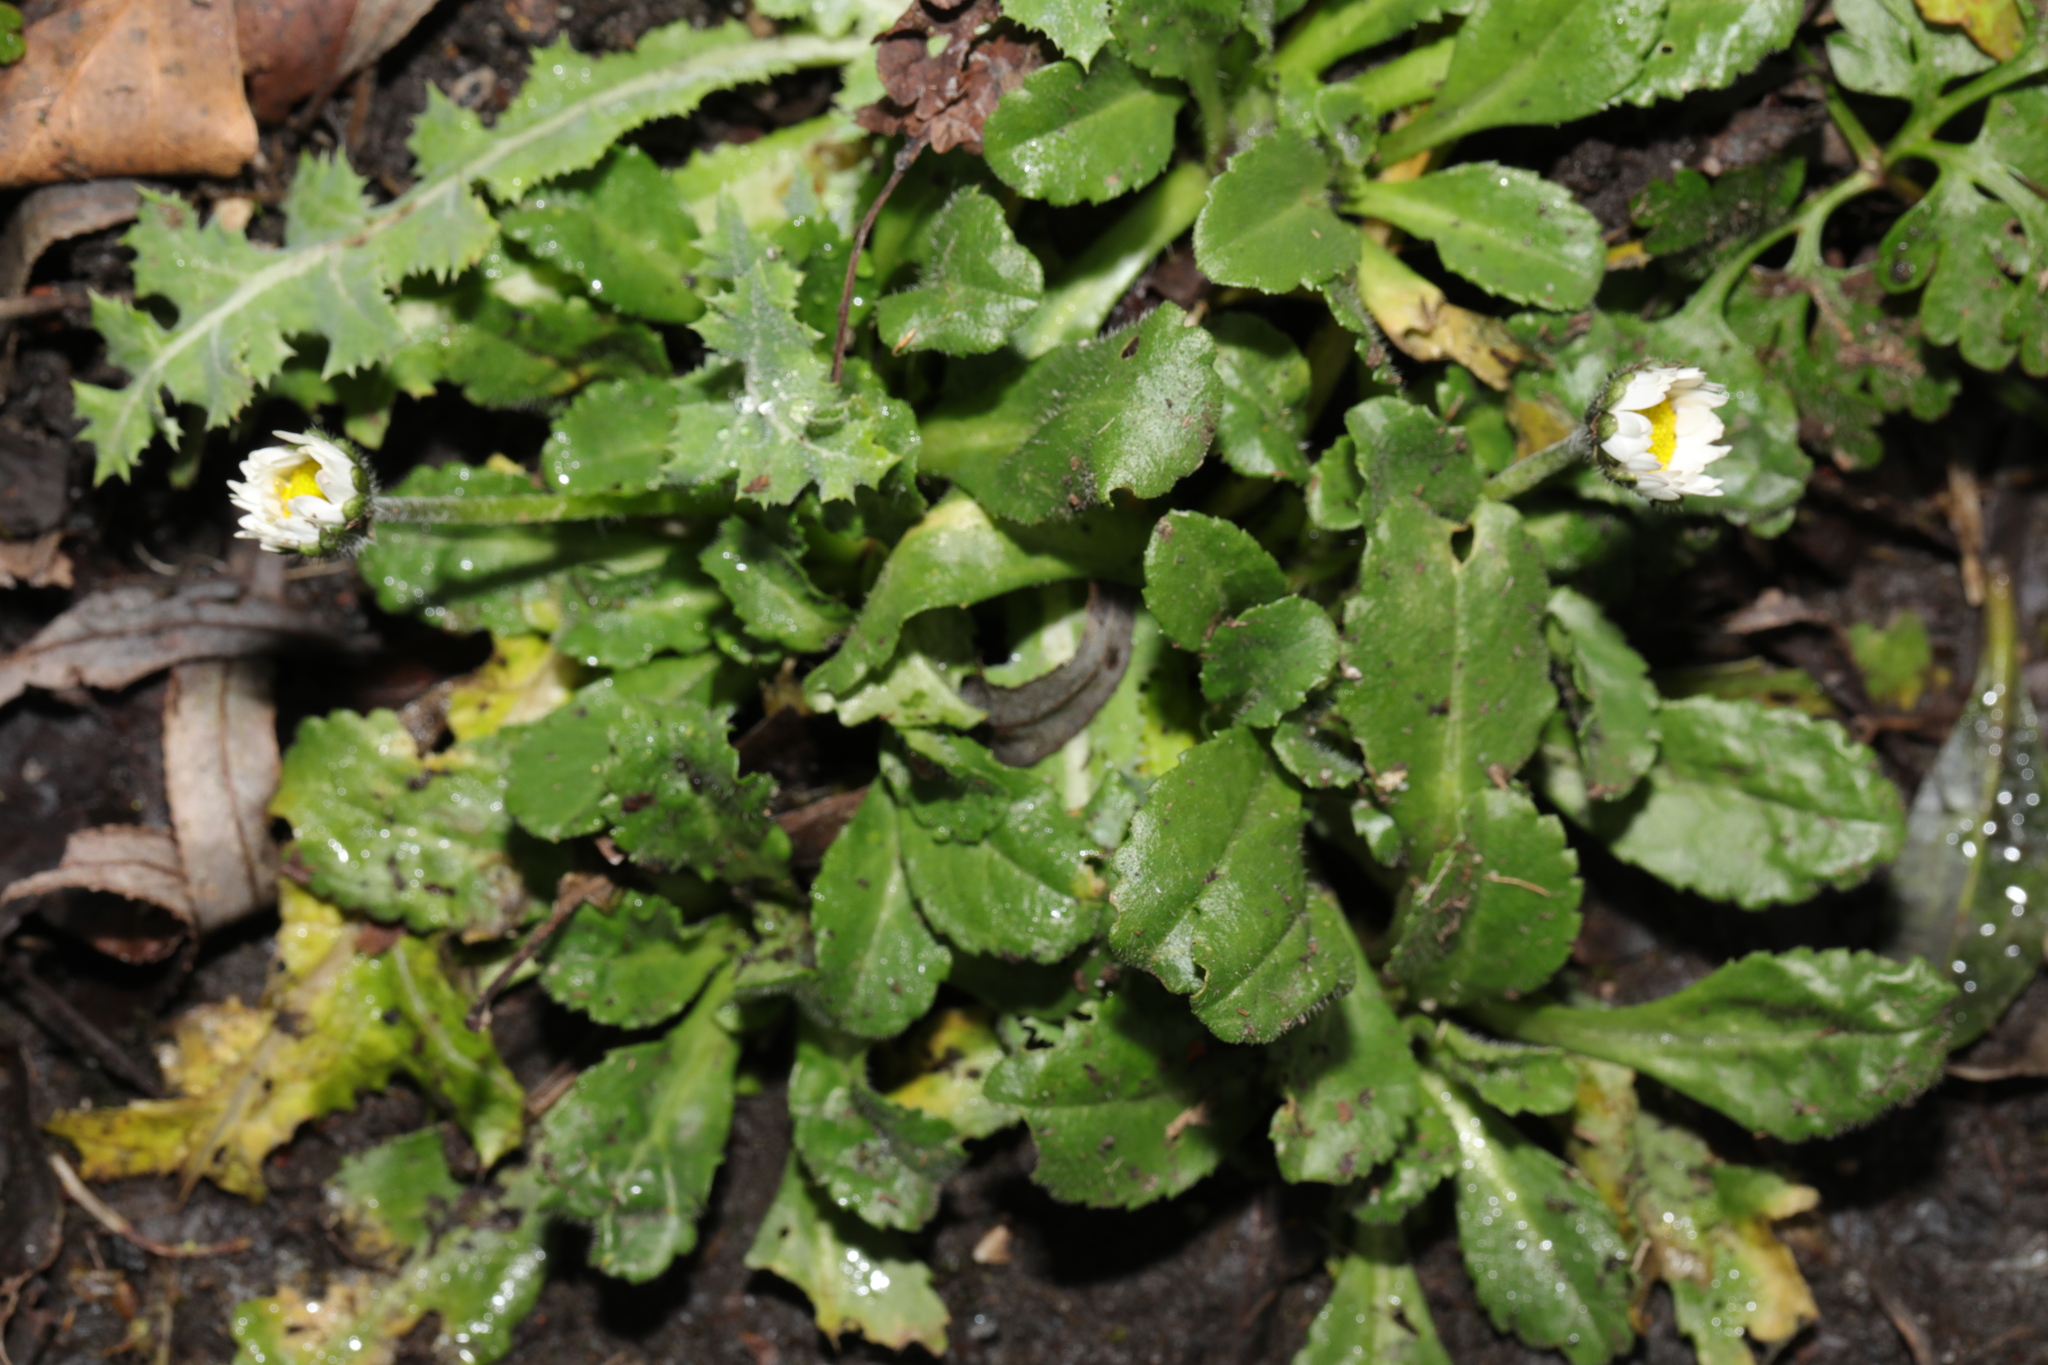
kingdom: Plantae
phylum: Tracheophyta
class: Magnoliopsida
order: Asterales
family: Asteraceae
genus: Bellis
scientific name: Bellis perennis
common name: Lawndaisy
